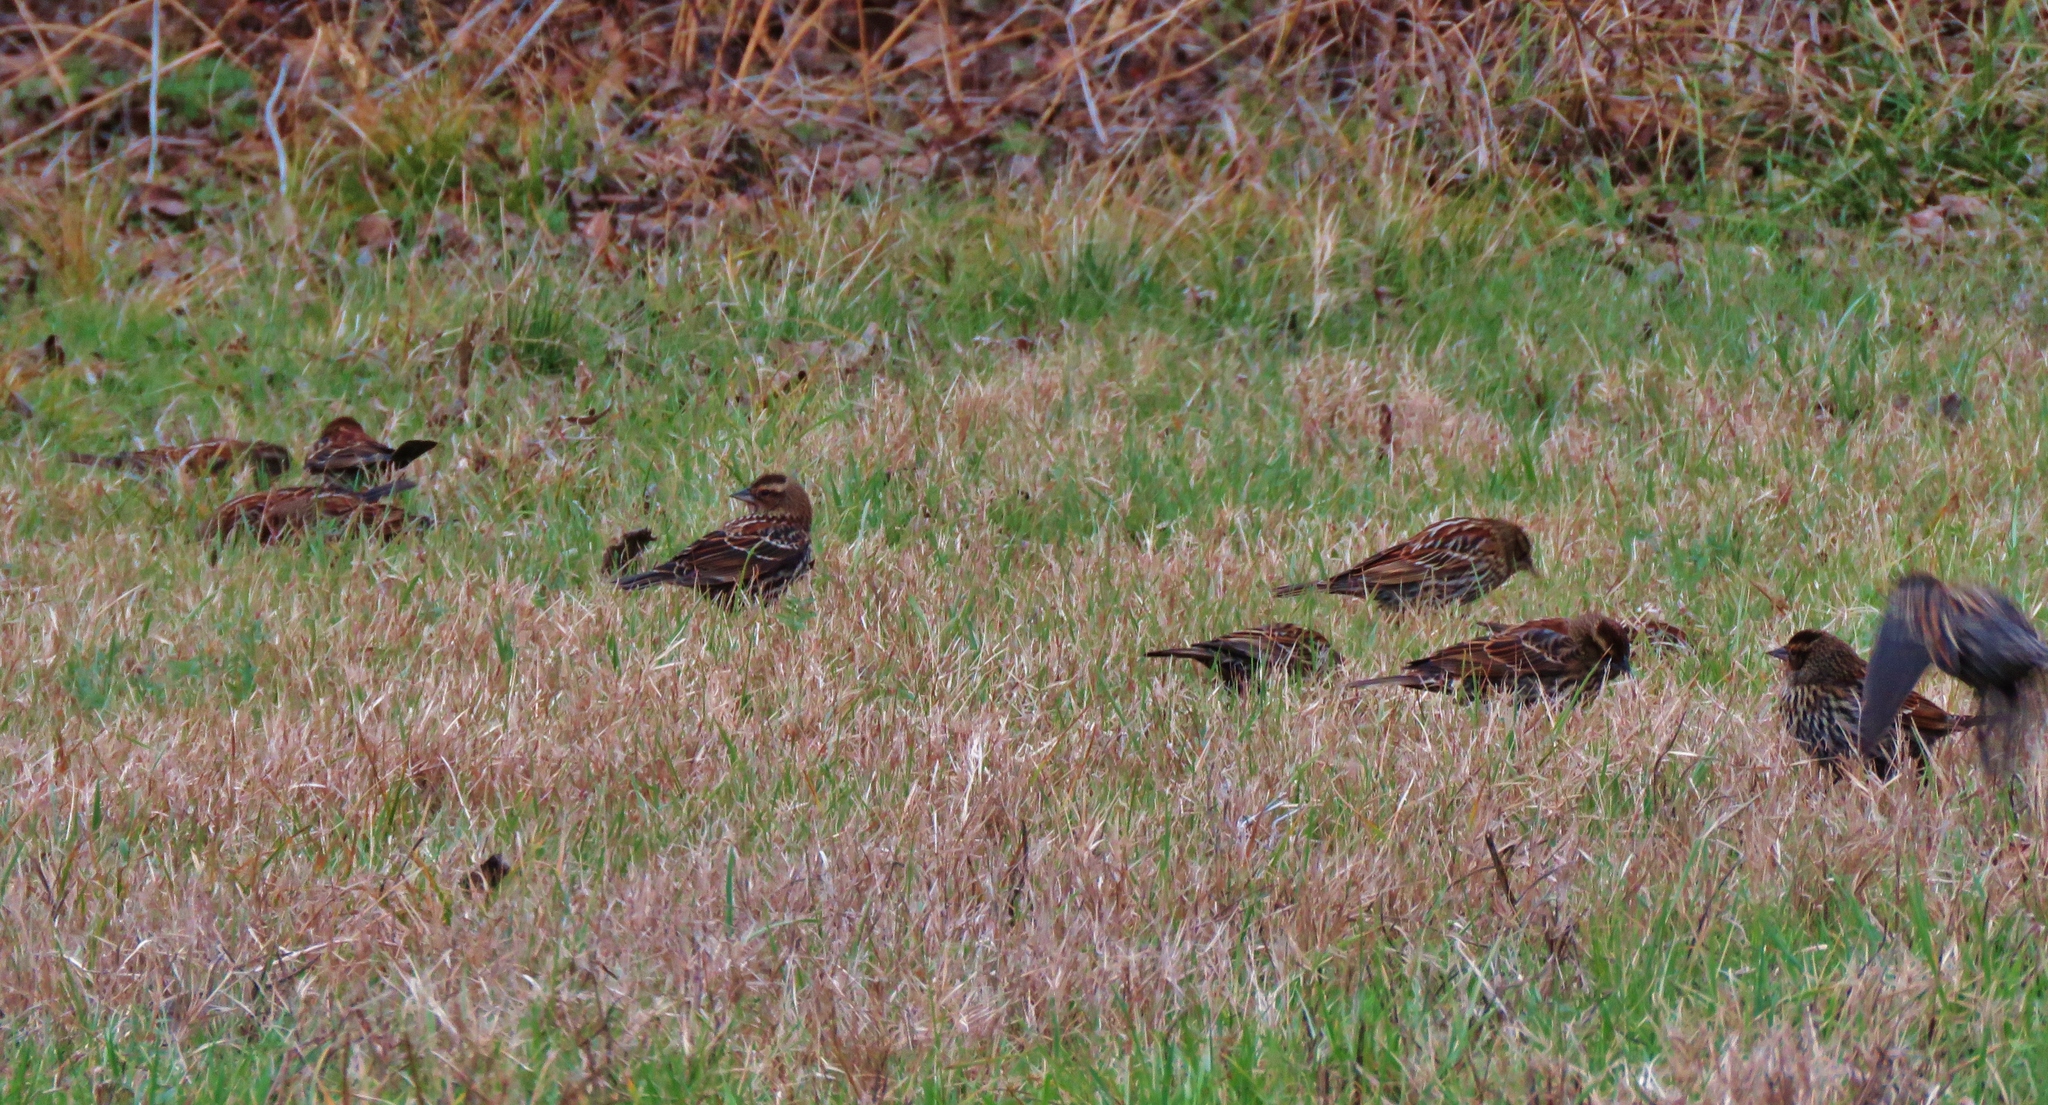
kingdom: Animalia
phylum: Chordata
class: Aves
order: Passeriformes
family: Icteridae
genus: Agelaius
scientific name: Agelaius phoeniceus
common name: Red-winged blackbird
